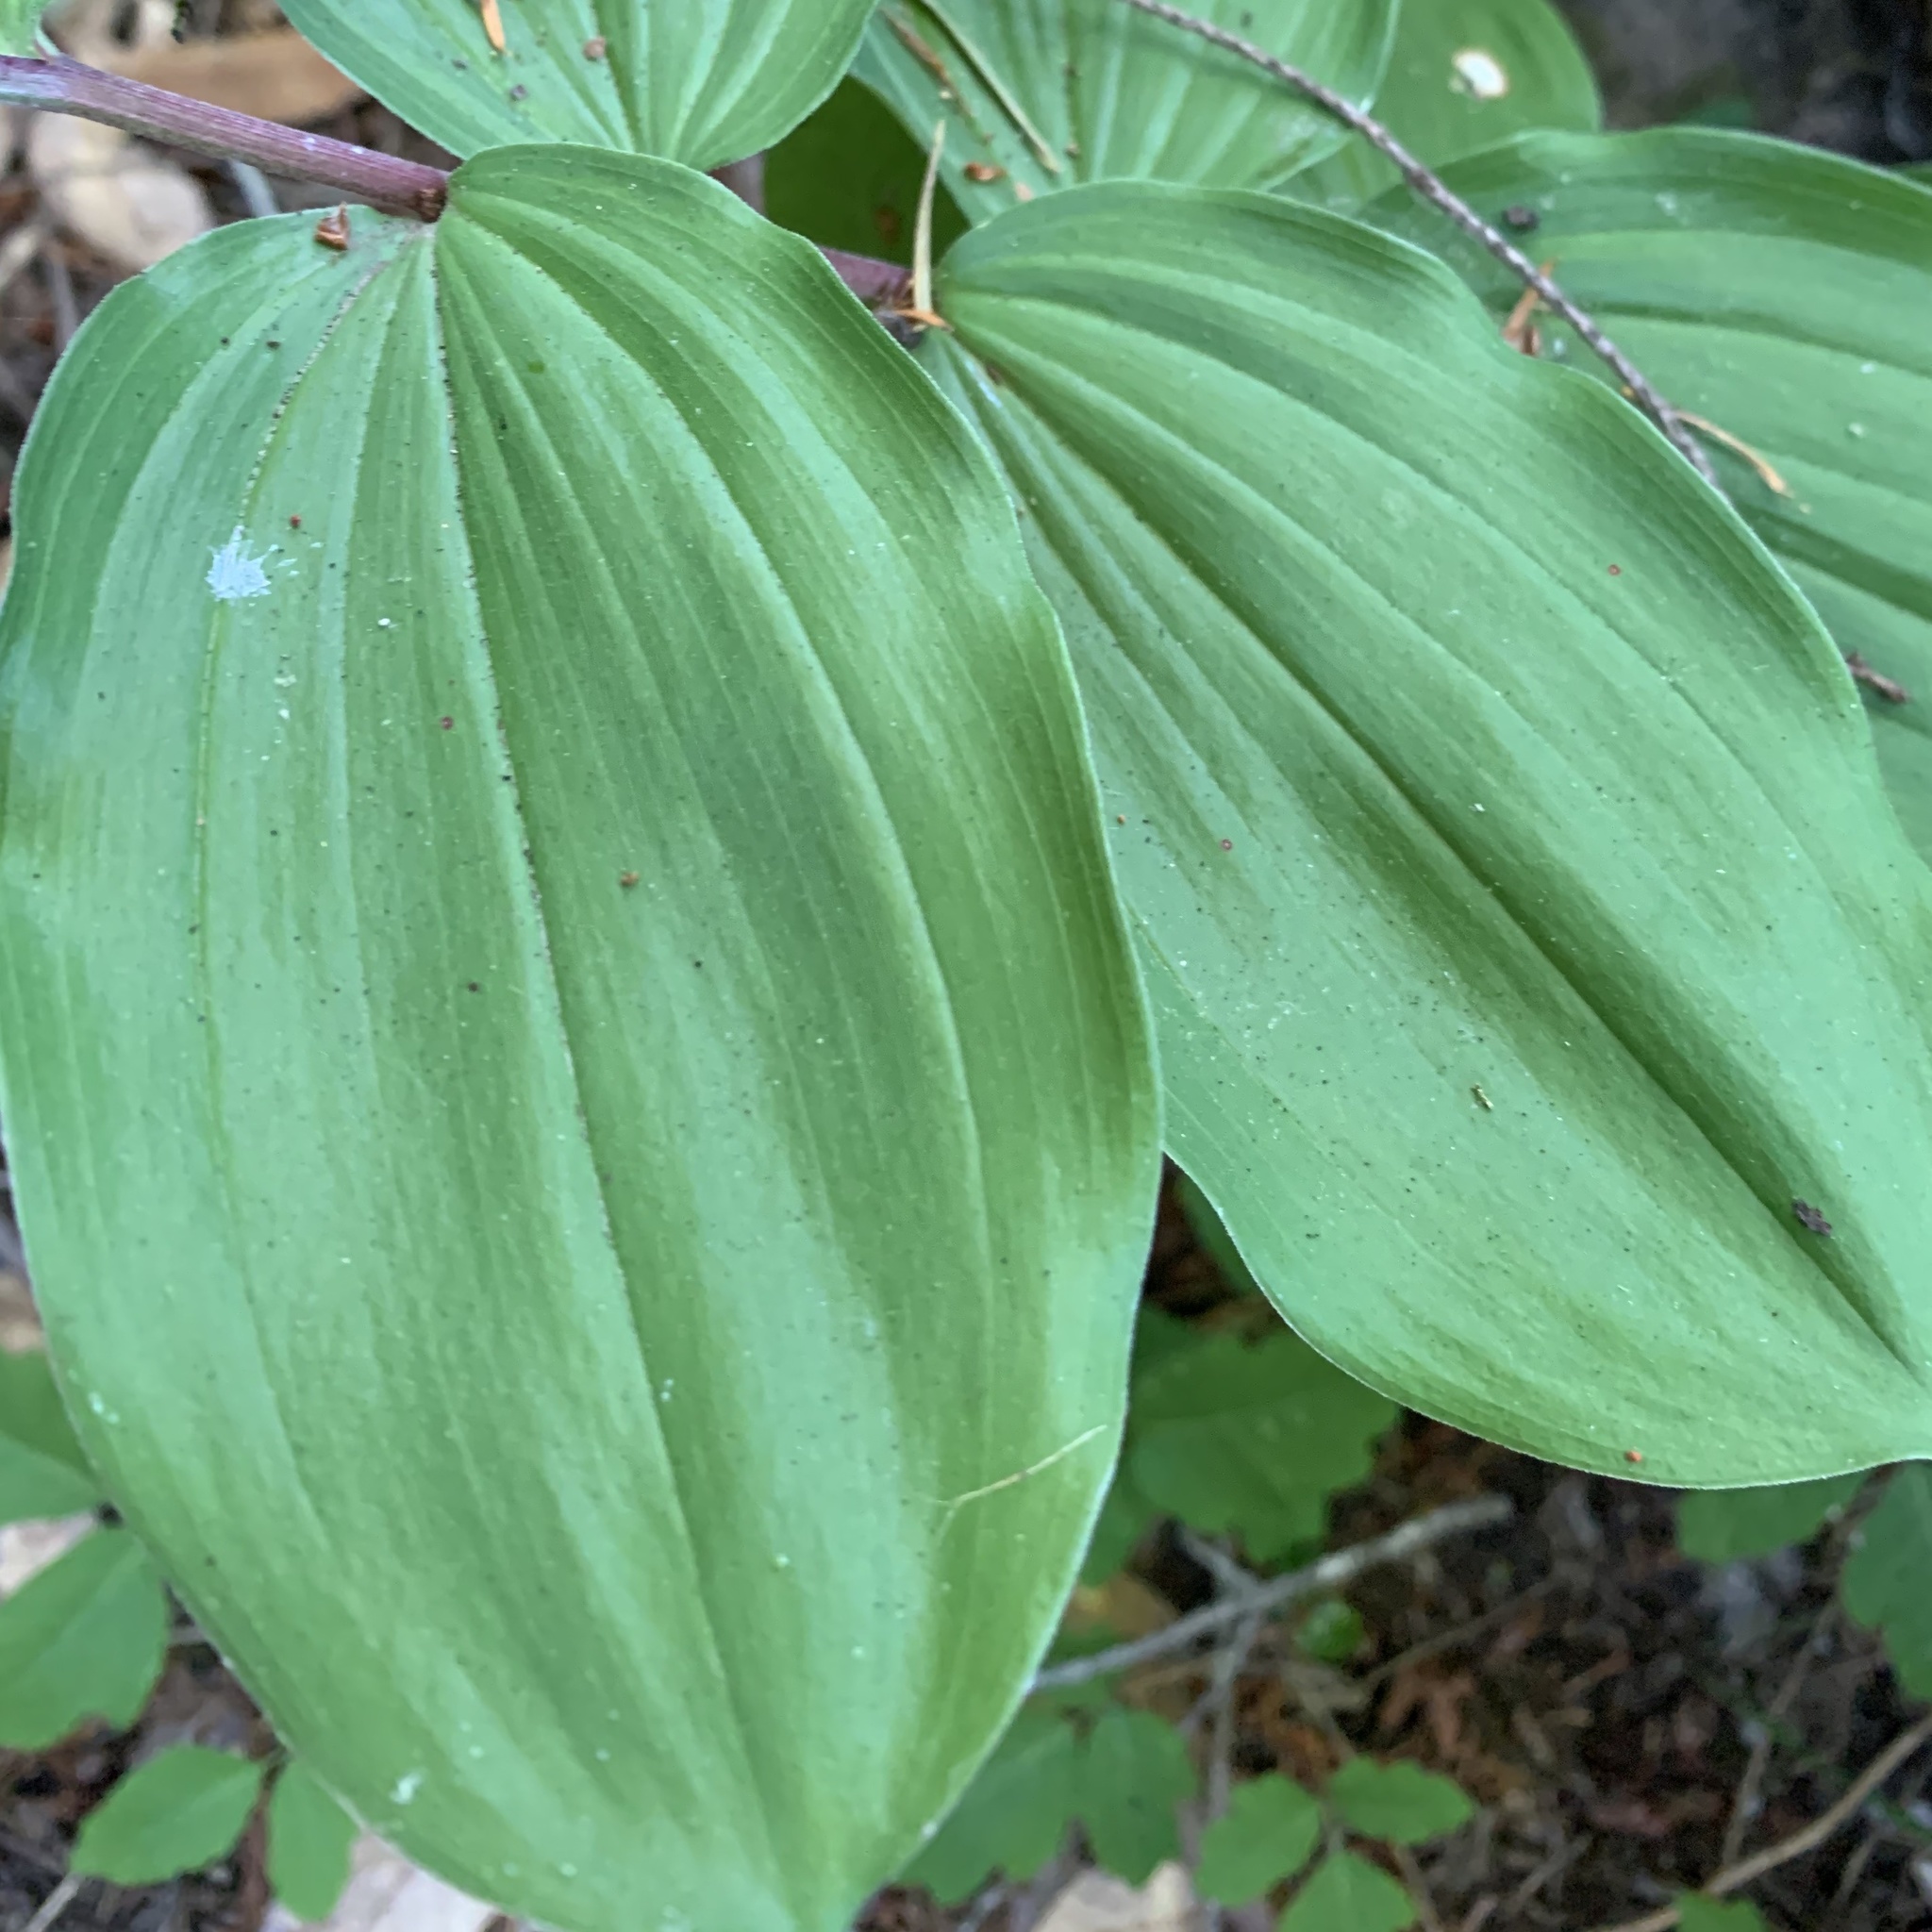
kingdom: Plantae
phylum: Tracheophyta
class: Liliopsida
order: Asparagales
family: Asparagaceae
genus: Maianthemum
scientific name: Maianthemum racemosum
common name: False spikenard
